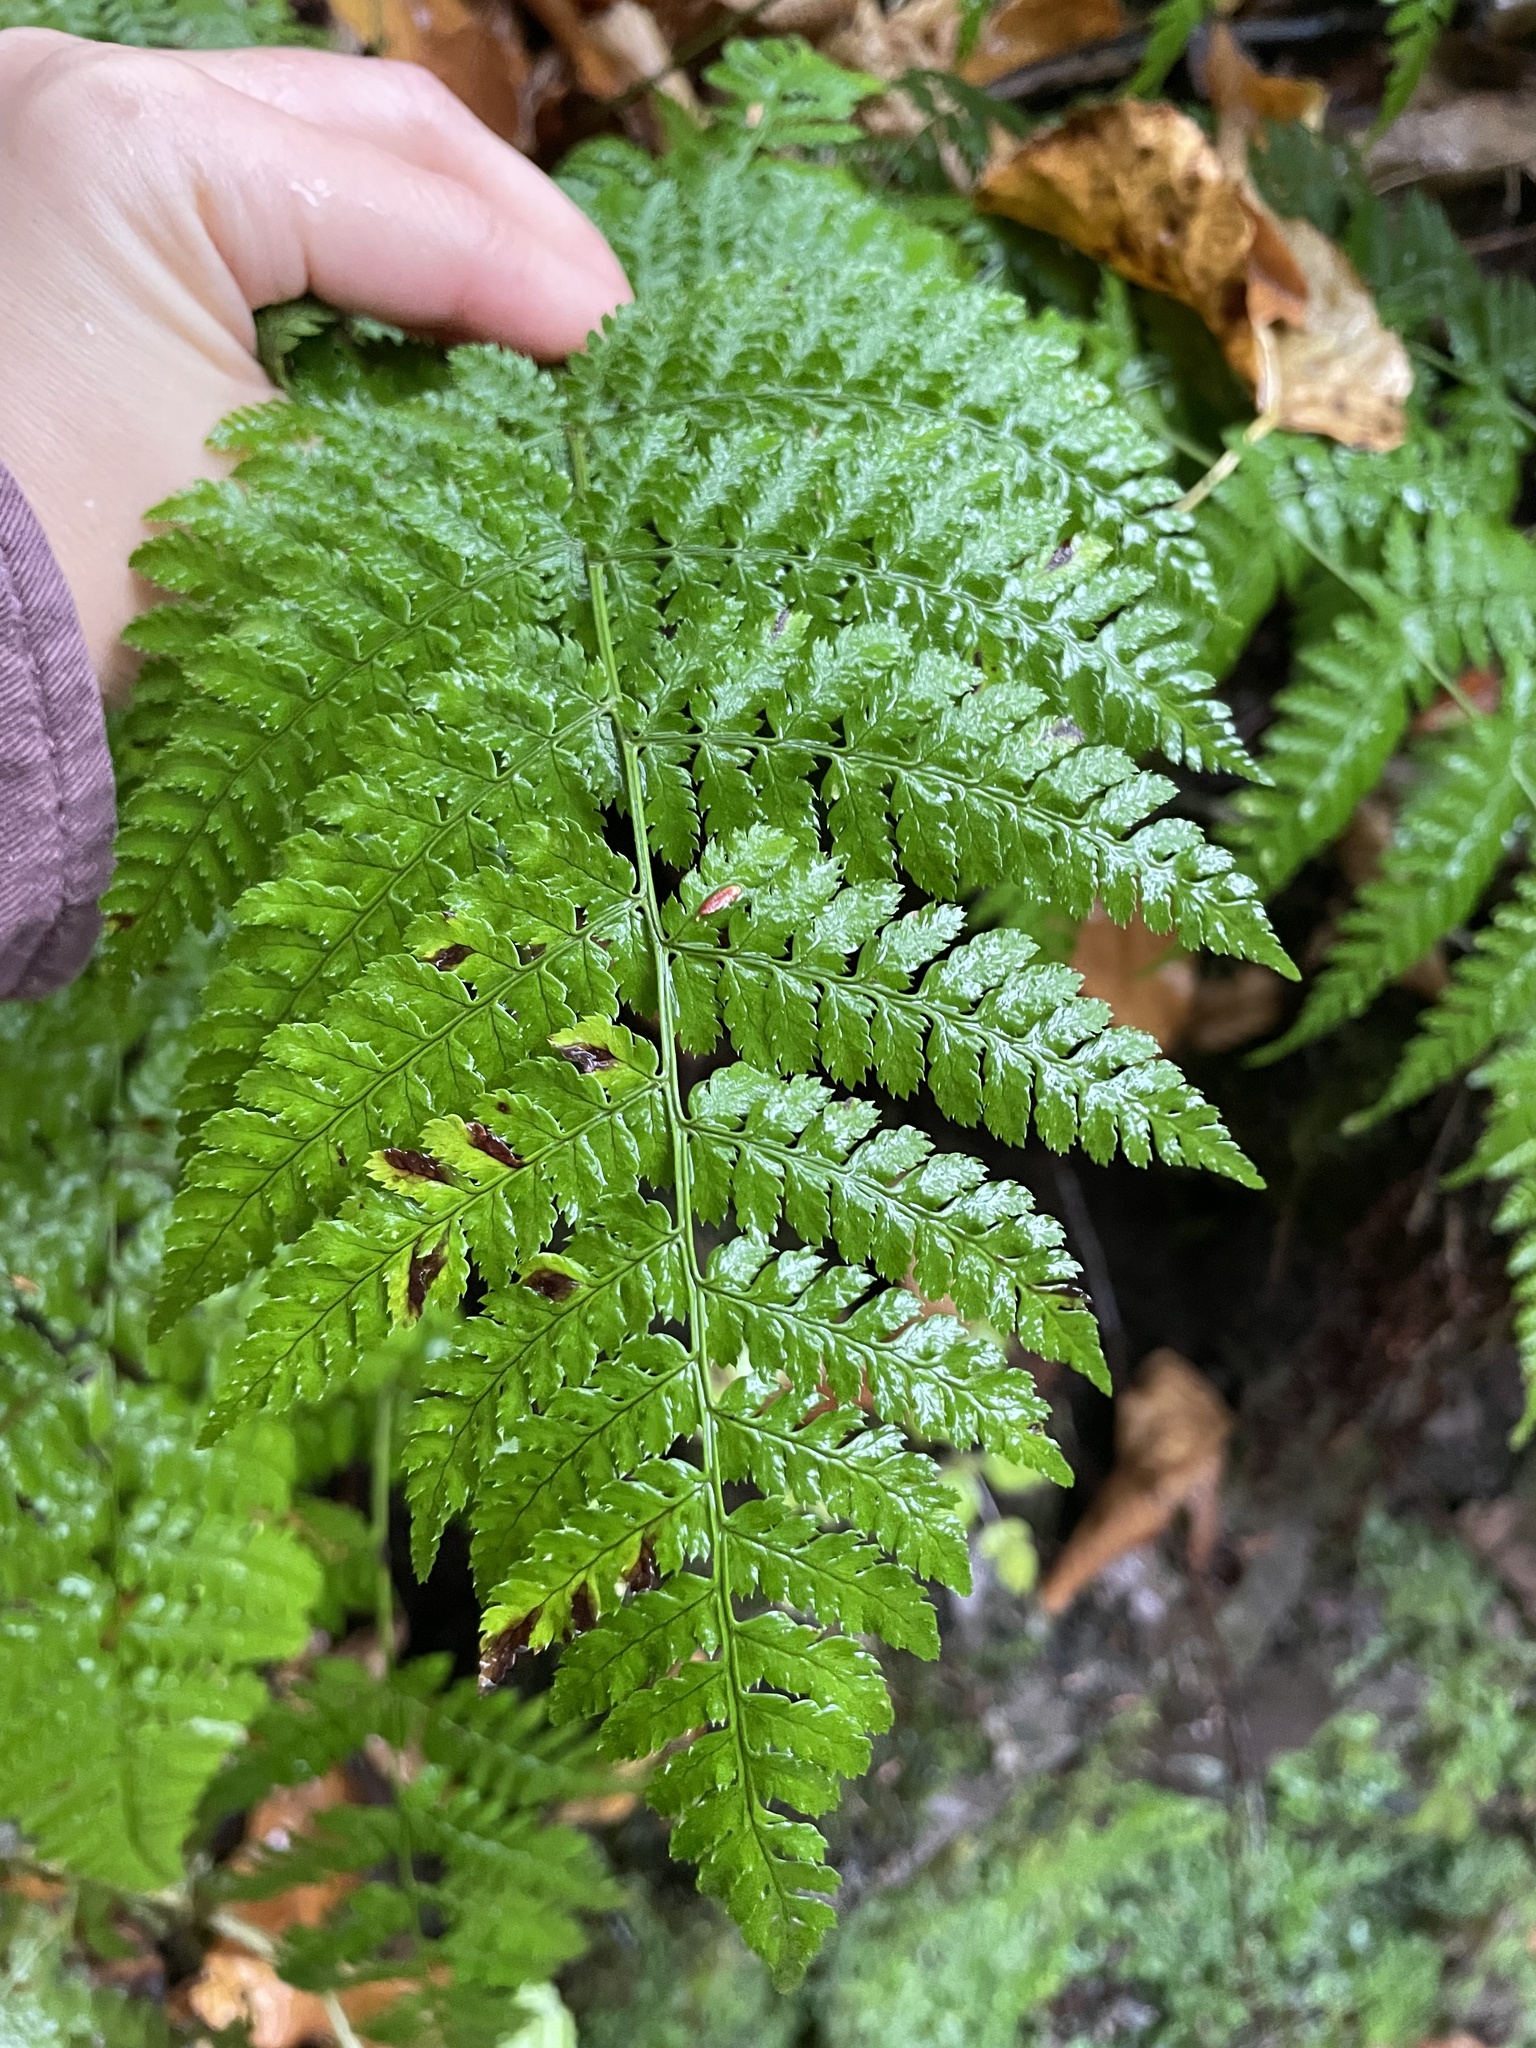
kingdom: Plantae
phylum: Tracheophyta
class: Polypodiopsida
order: Polypodiales
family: Dryopteridaceae
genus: Dryopteris
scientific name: Dryopteris intermedia
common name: Evergreen wood fern
